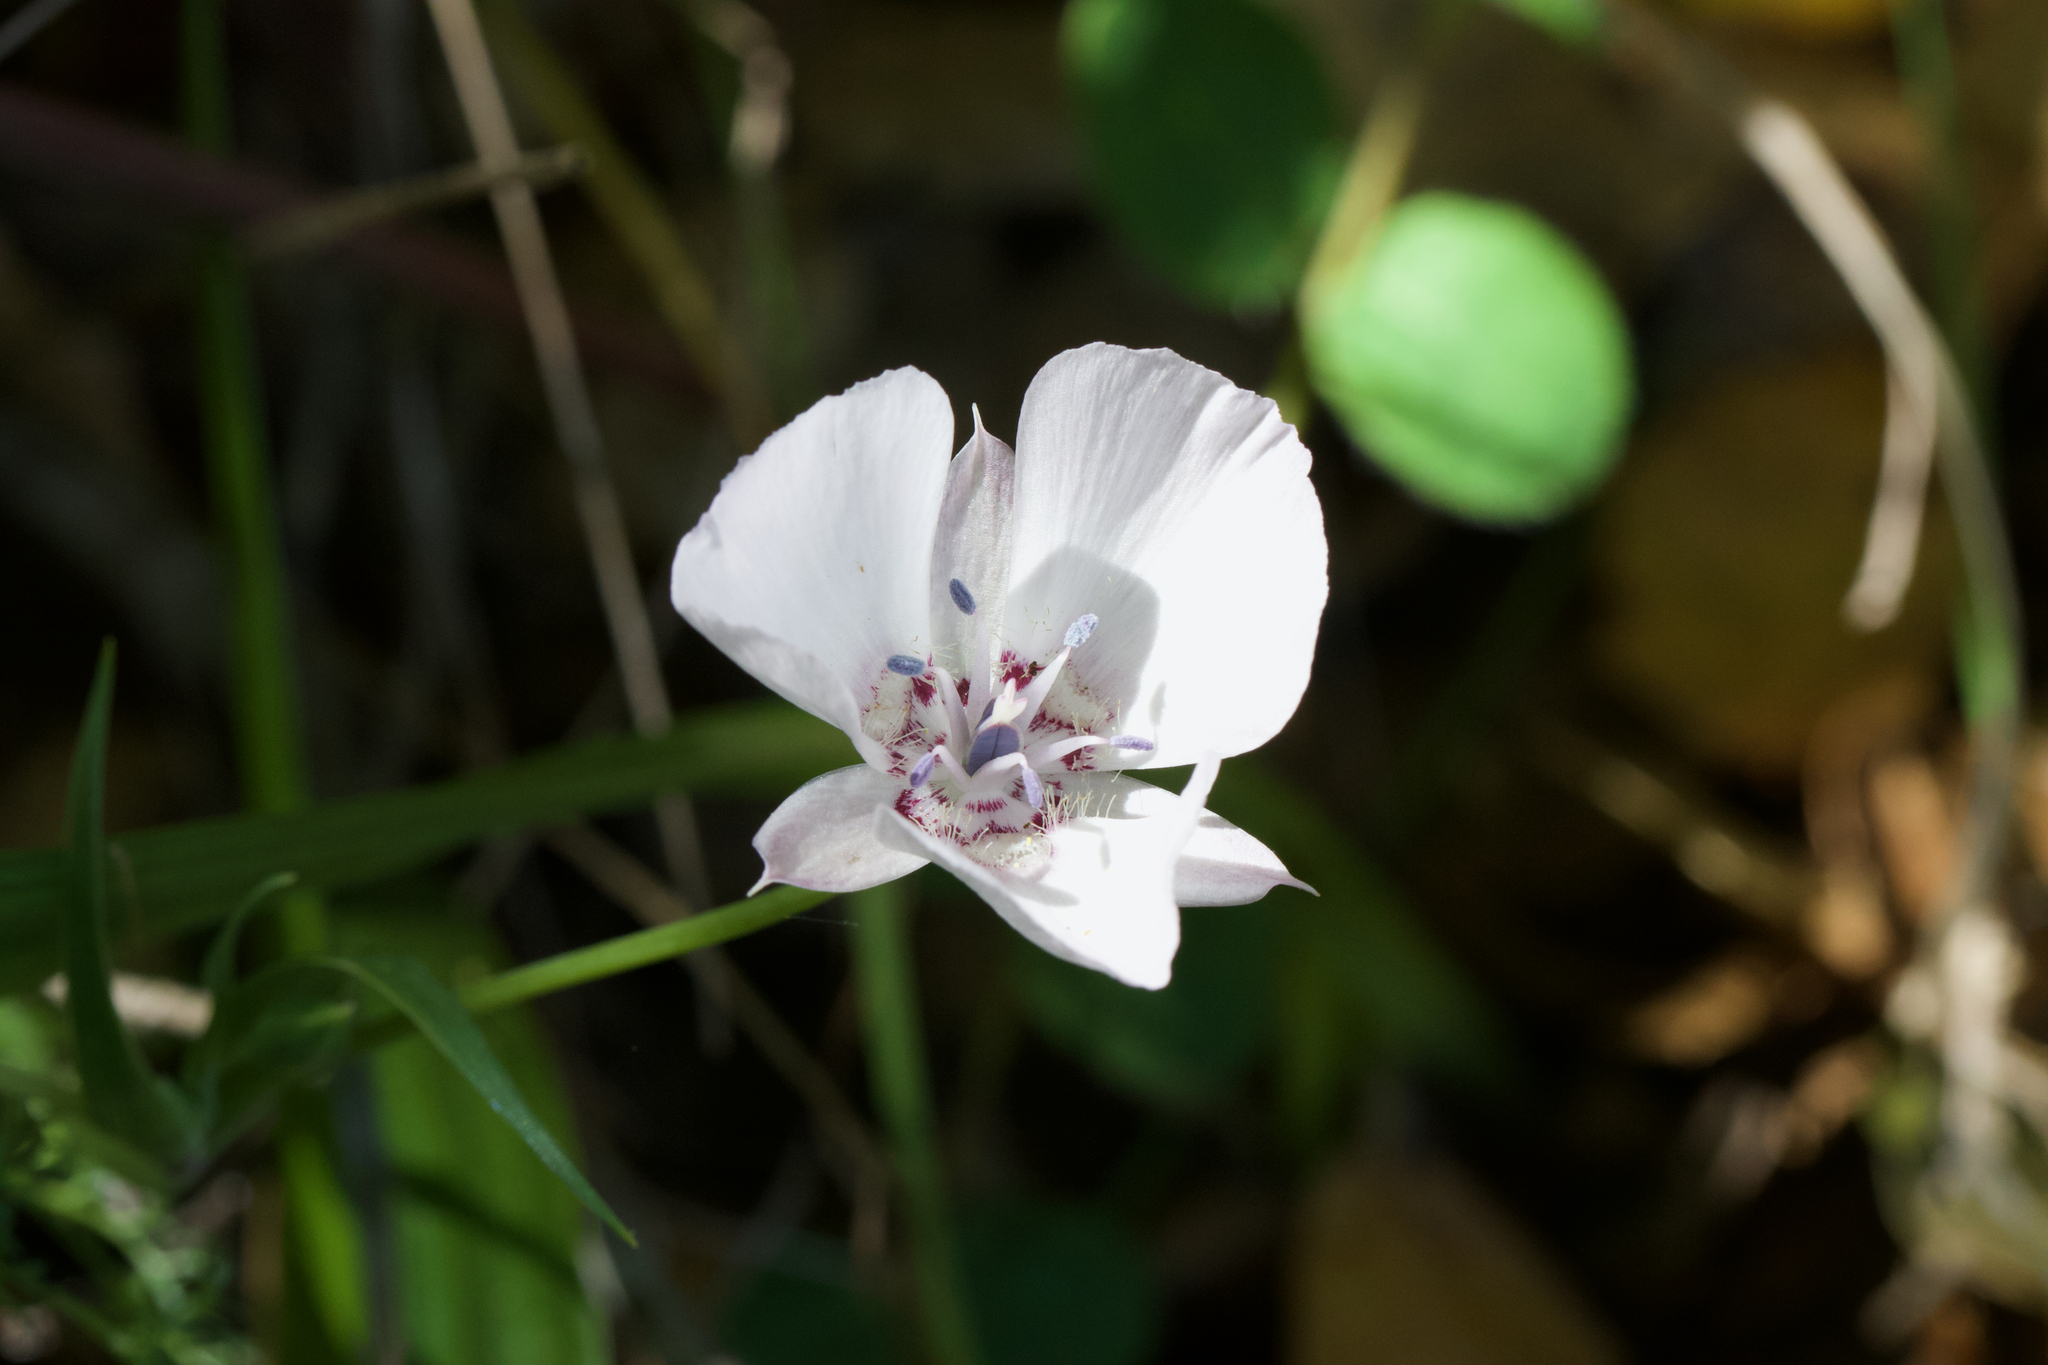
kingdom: Plantae
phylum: Tracheophyta
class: Liliopsida
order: Liliales
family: Liliaceae
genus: Calochortus
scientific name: Calochortus umbellatus
